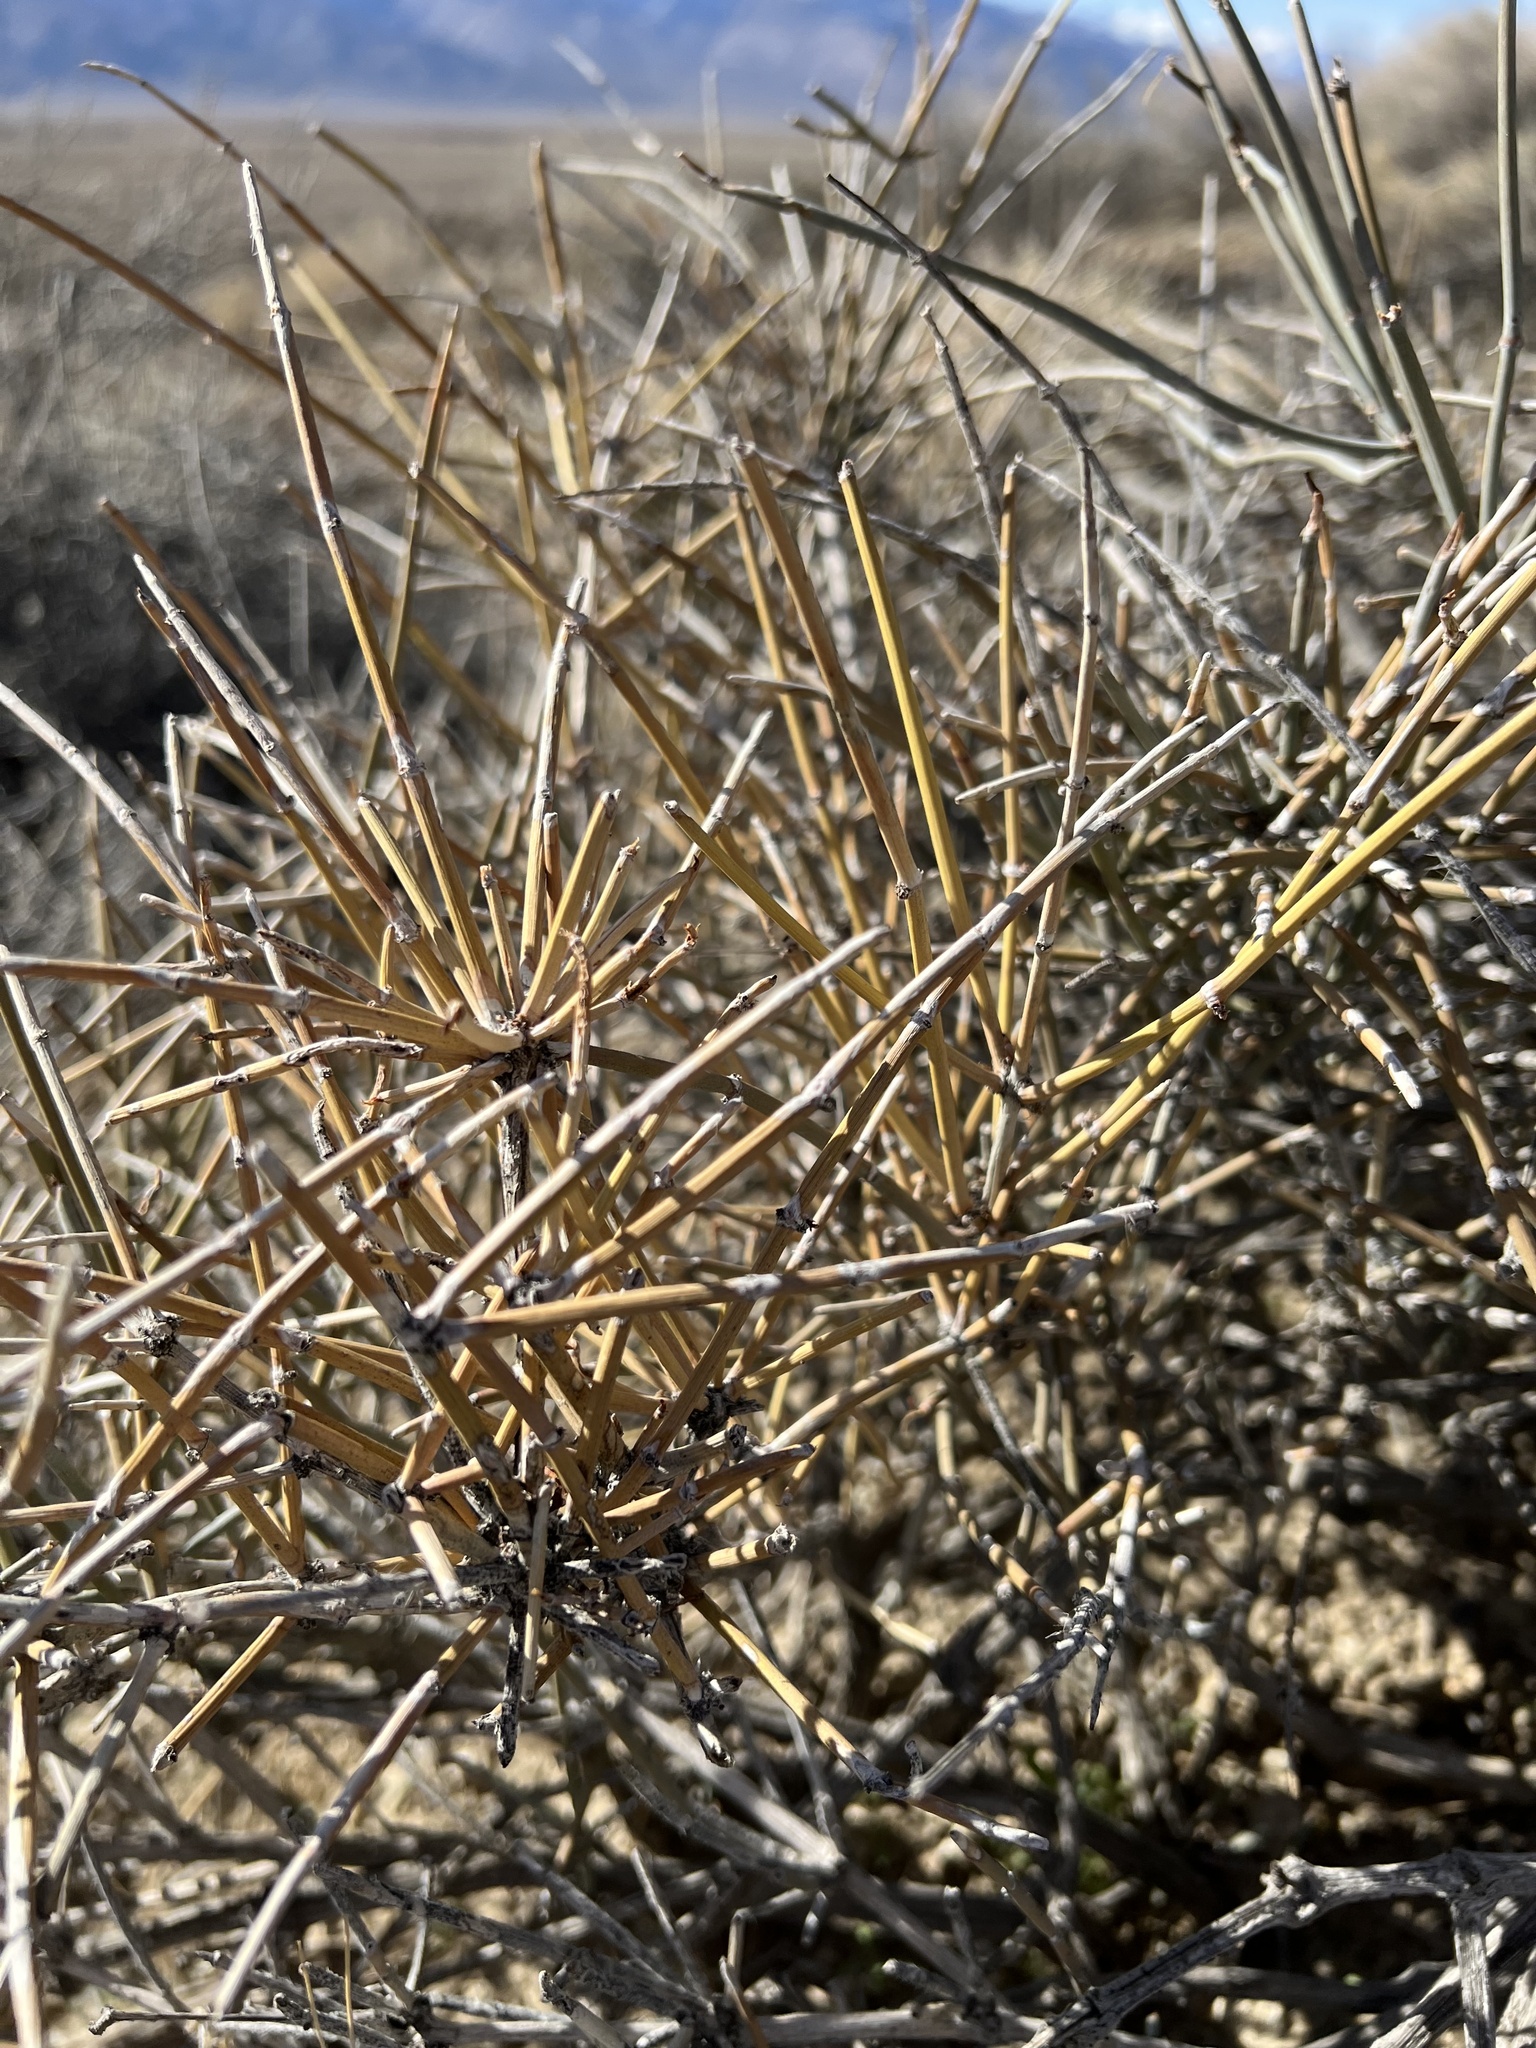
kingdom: Plantae
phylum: Tracheophyta
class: Gnetopsida
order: Ephedrales
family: Ephedraceae
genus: Ephedra
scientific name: Ephedra nevadensis
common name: Gray ephedra
